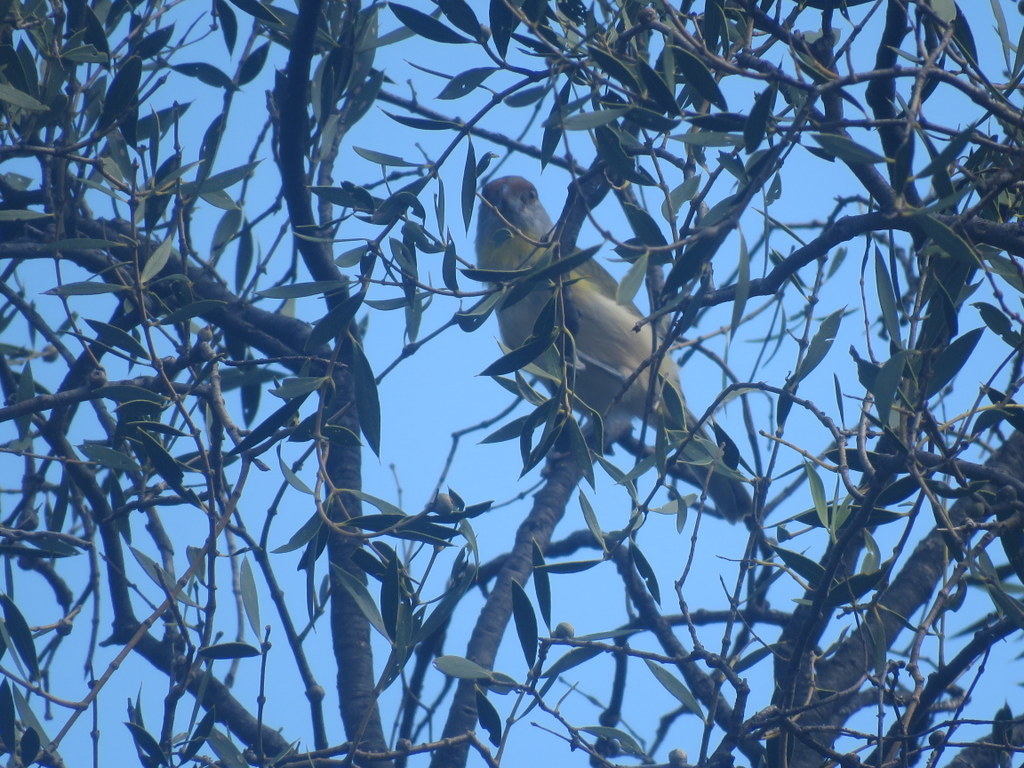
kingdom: Animalia
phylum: Chordata
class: Aves
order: Passeriformes
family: Vireonidae
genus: Cyclarhis
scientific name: Cyclarhis gujanensis
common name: Rufous-browed peppershrike
